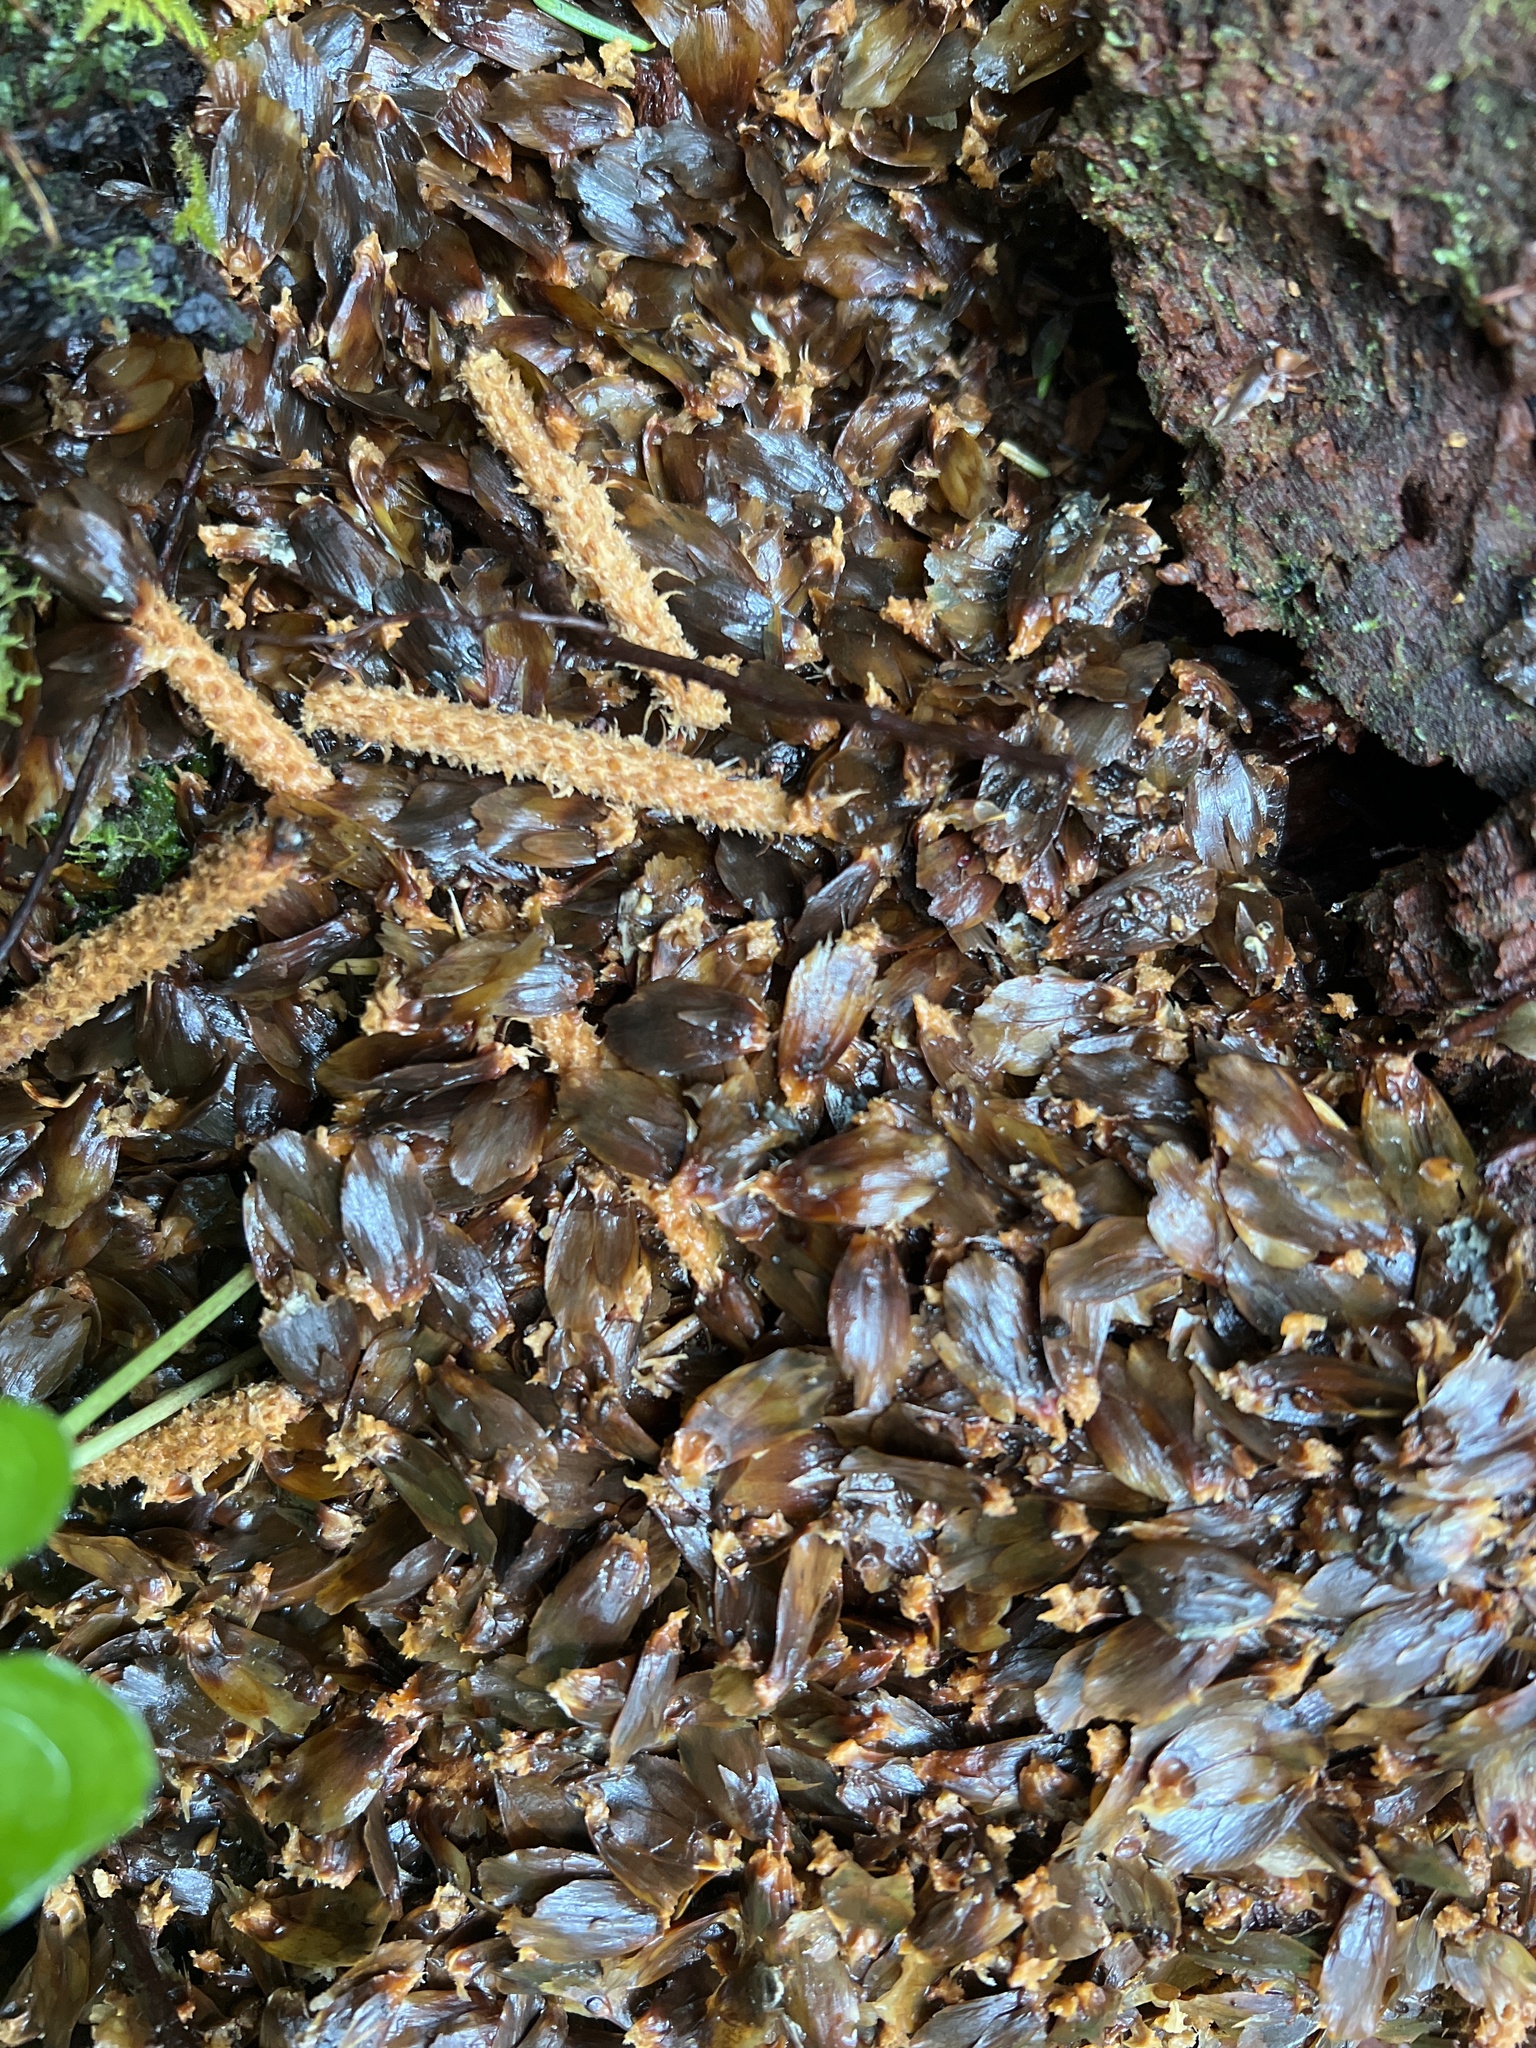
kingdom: Animalia
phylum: Chordata
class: Mammalia
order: Rodentia
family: Sciuridae
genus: Tamiasciurus
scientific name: Tamiasciurus hudsonicus
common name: Red squirrel
